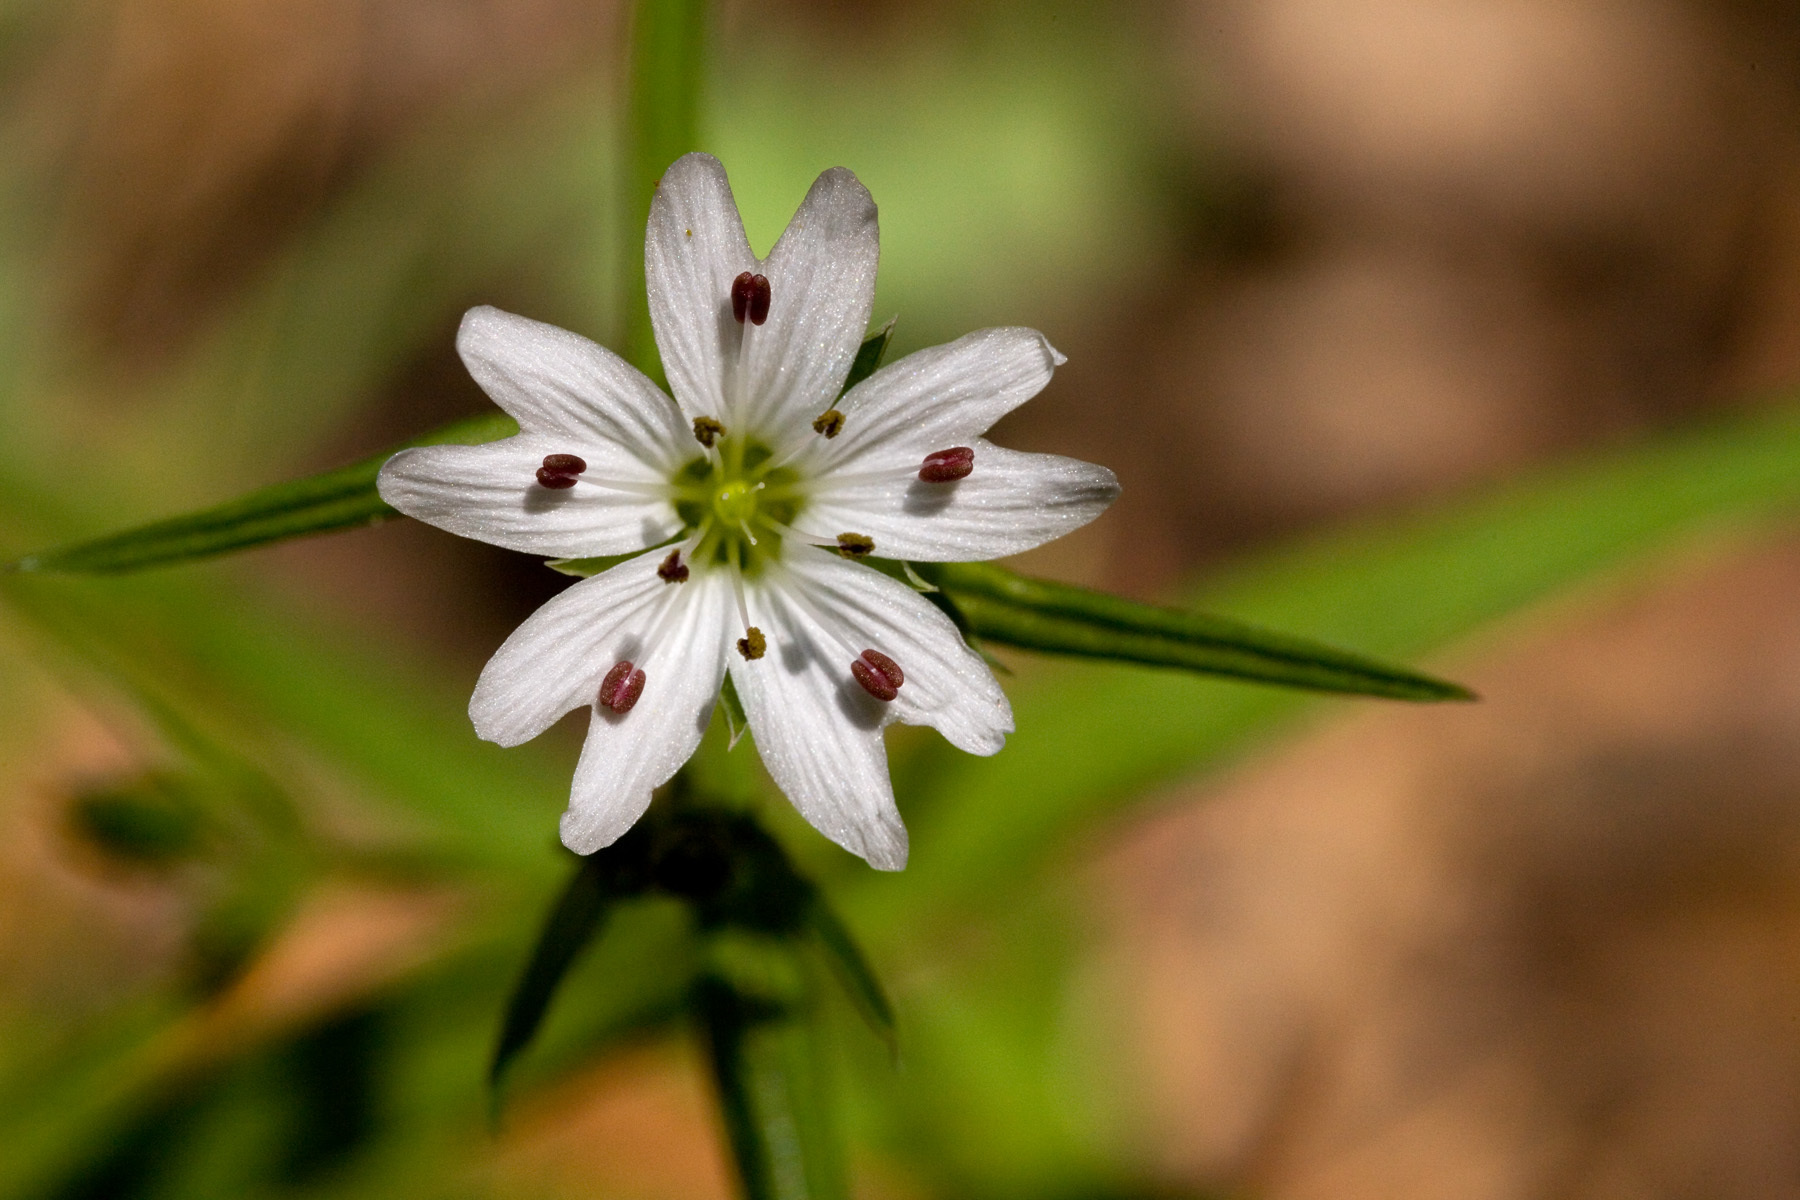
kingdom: Plantae
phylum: Tracheophyta
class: Magnoliopsida
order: Caryophyllales
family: Caryophyllaceae
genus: Schizotechium
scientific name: Schizotechium jamesianum
